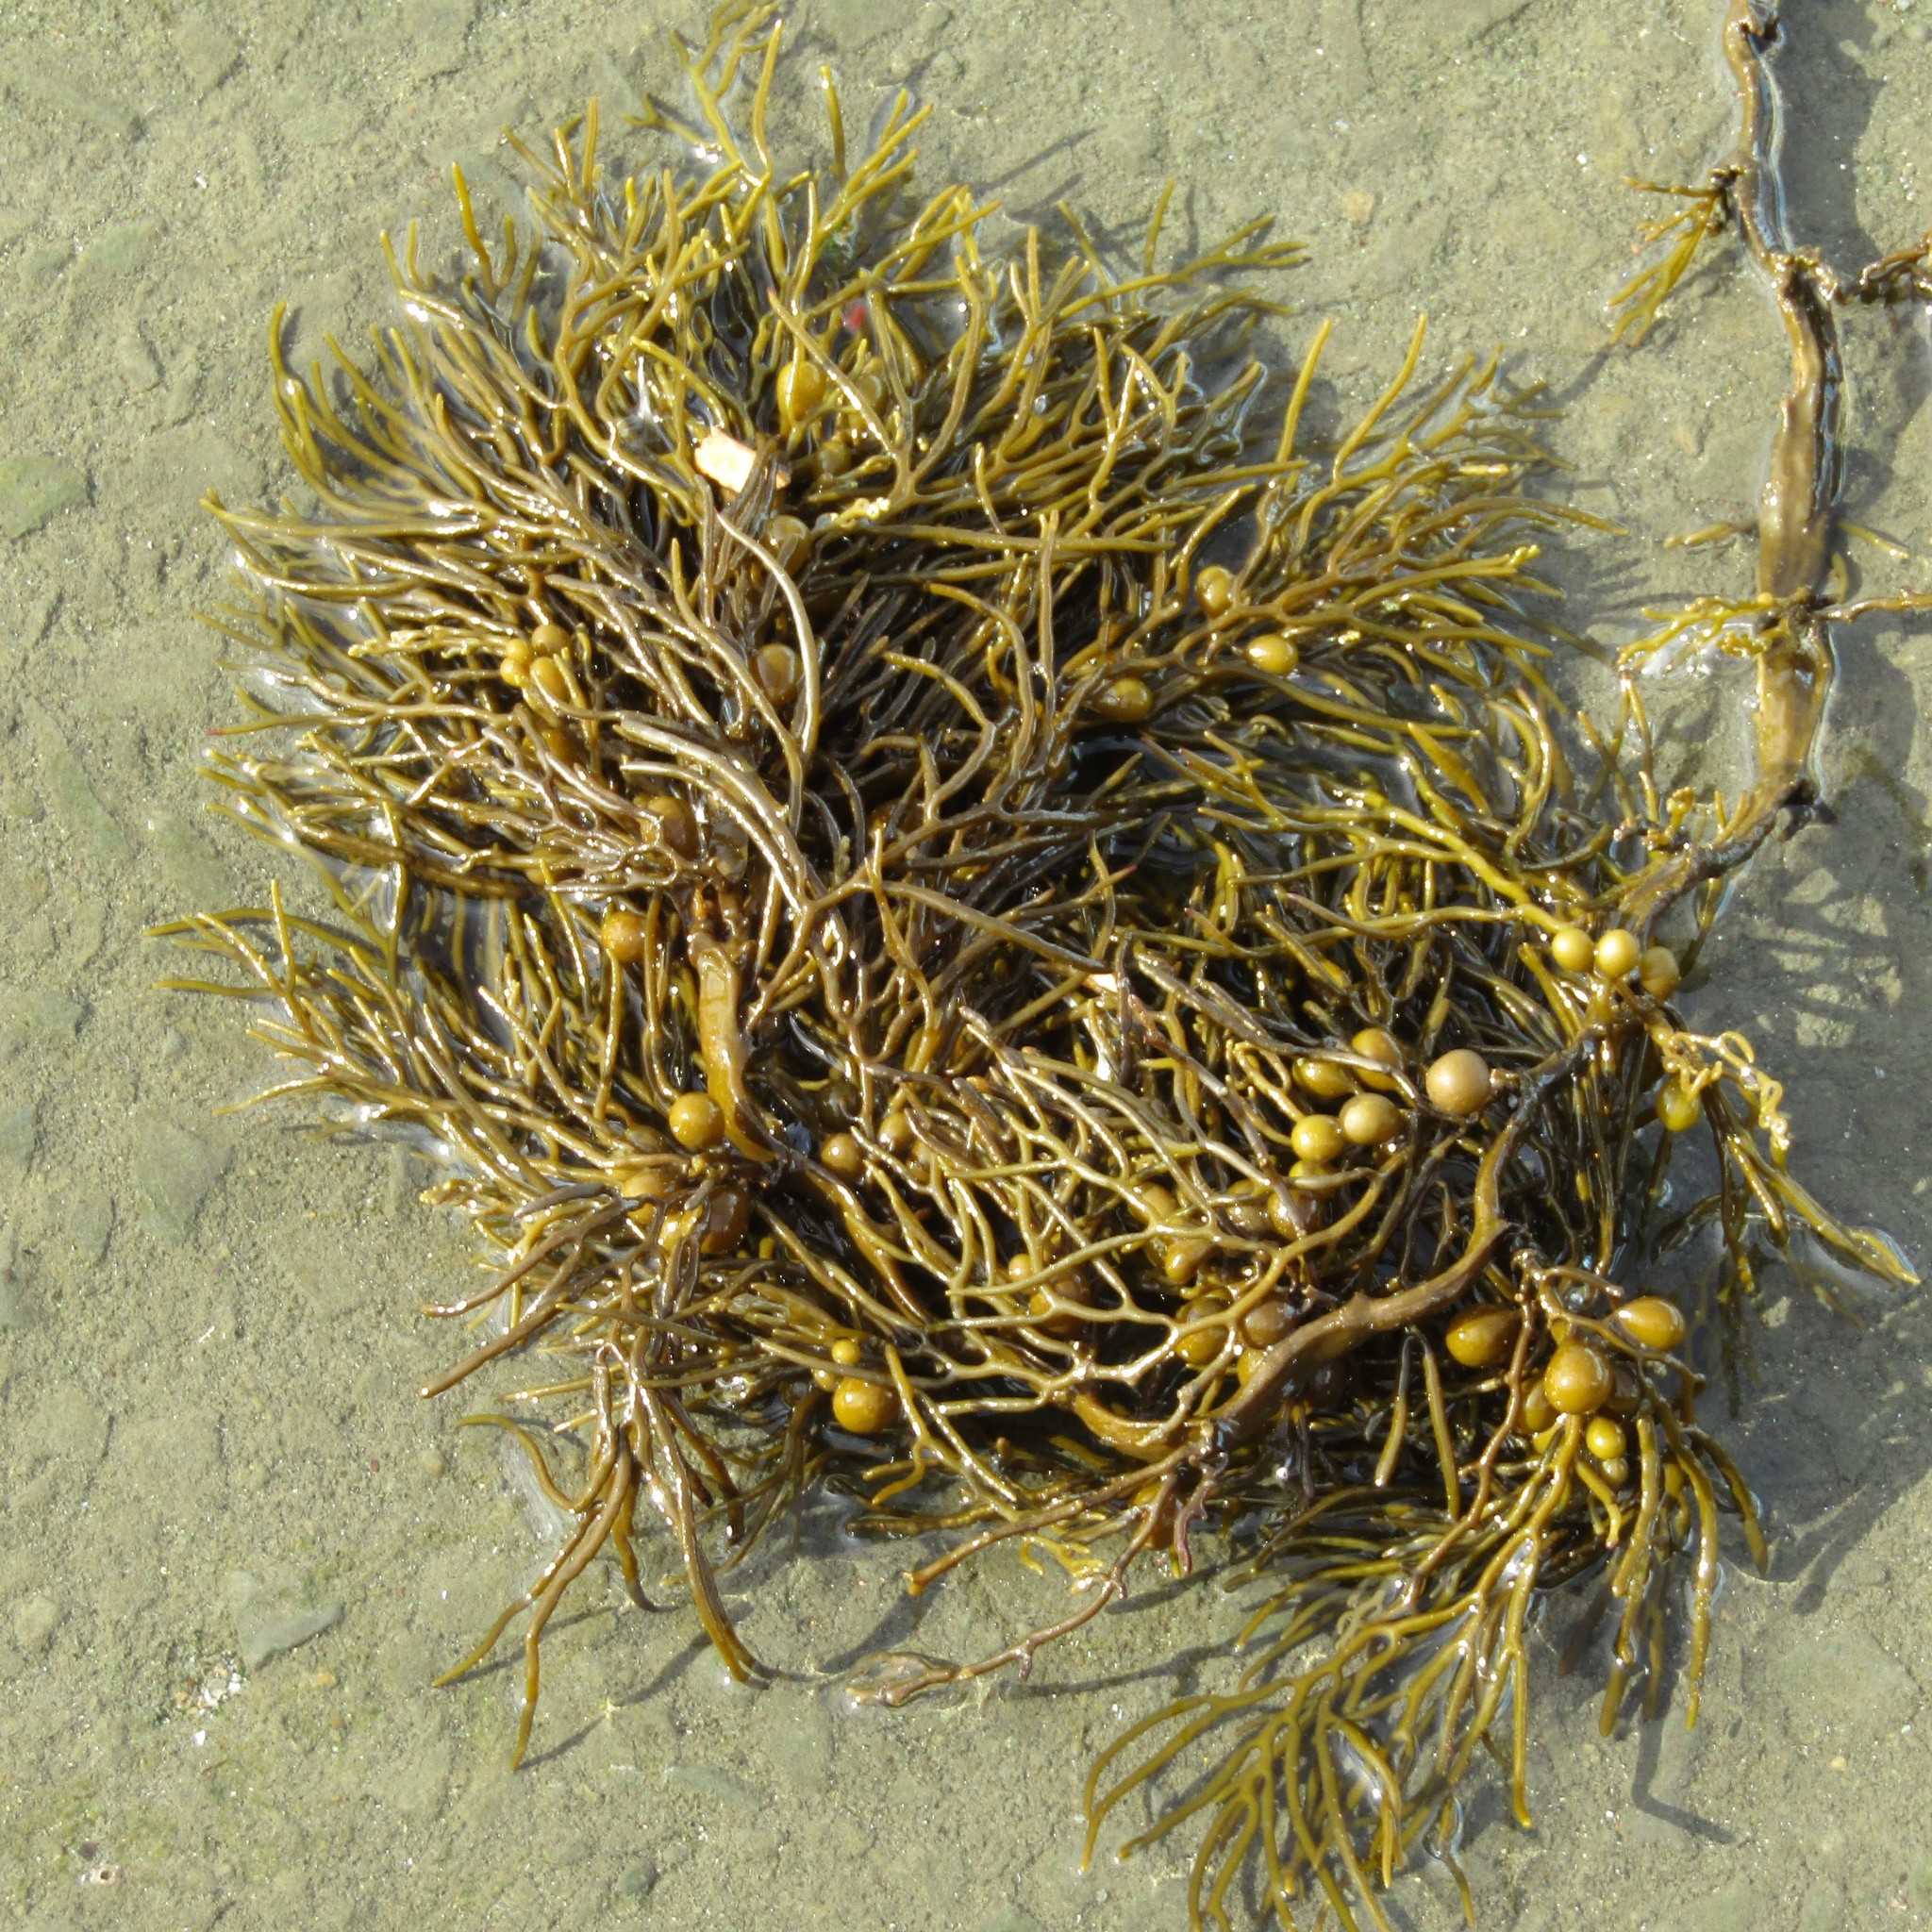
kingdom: Chromista
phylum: Ochrophyta
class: Phaeophyceae
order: Fucales
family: Sargassaceae
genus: Cystophora
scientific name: Cystophora retroflexa
